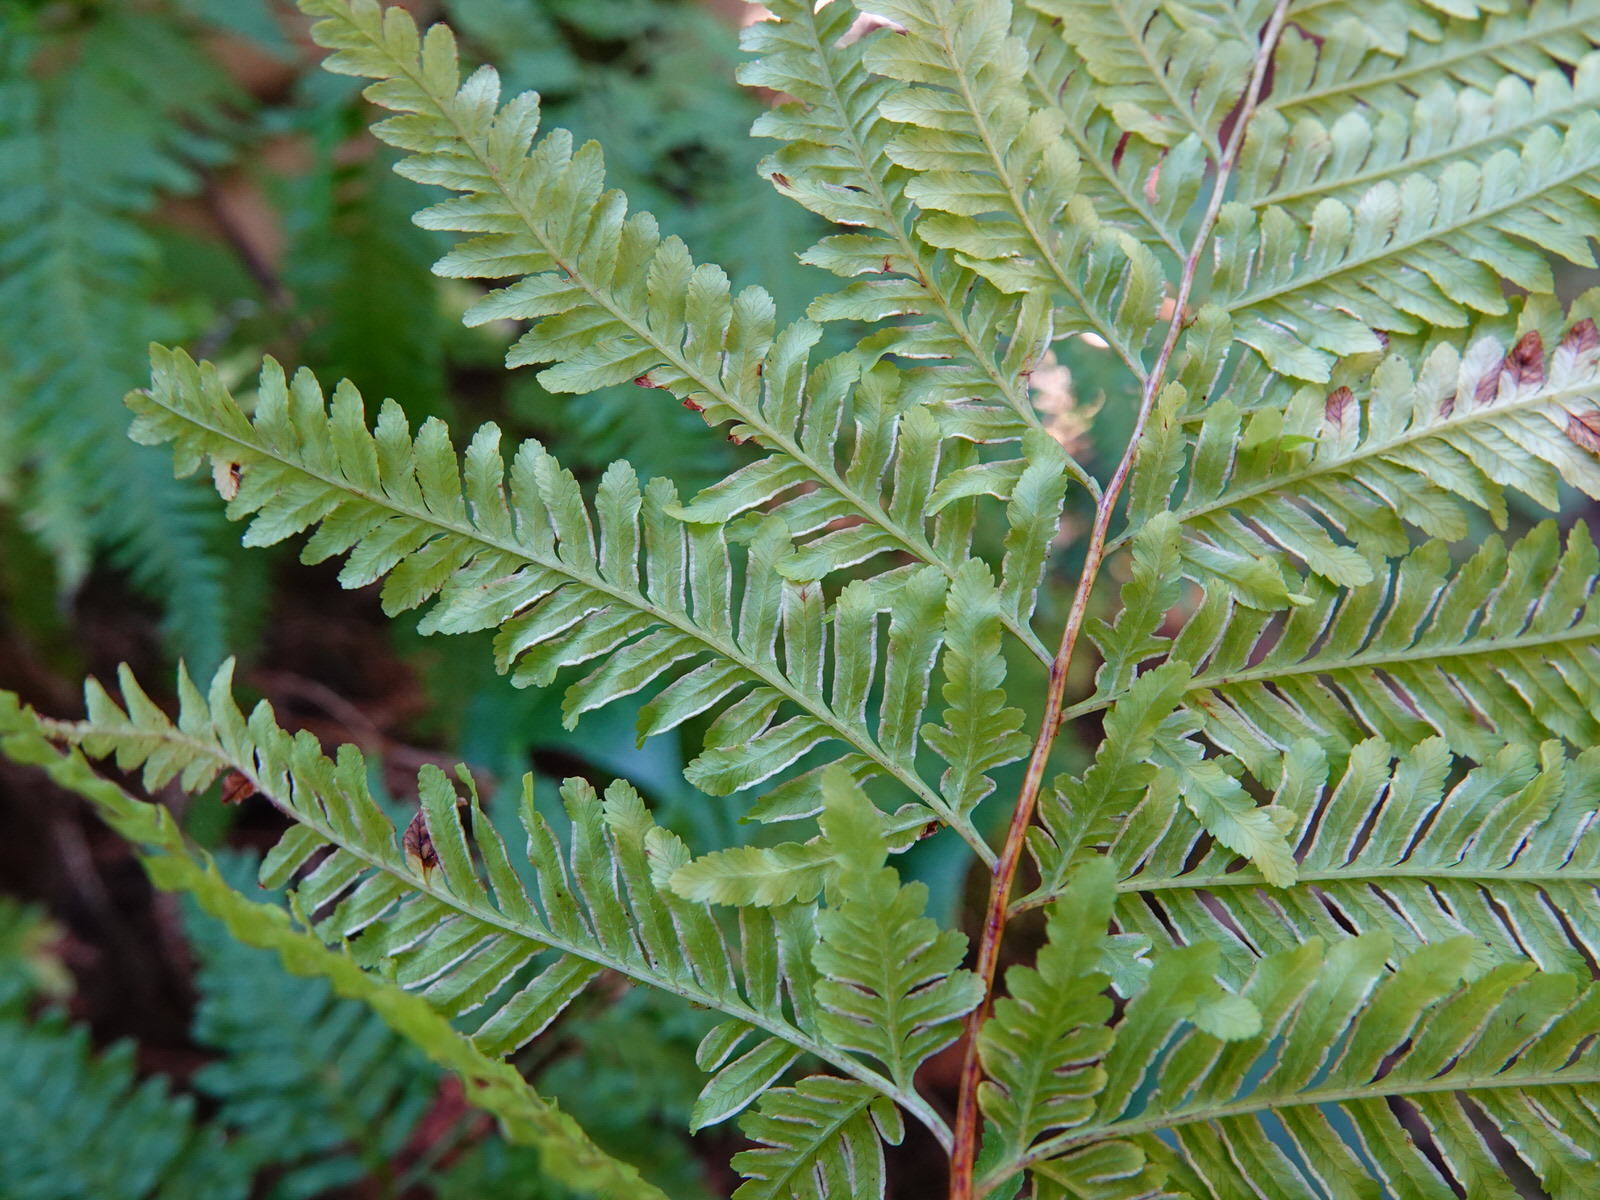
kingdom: Plantae
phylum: Tracheophyta
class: Polypodiopsida
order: Polypodiales
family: Pteridaceae
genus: Pteris
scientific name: Pteris tremula
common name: Australian brake
